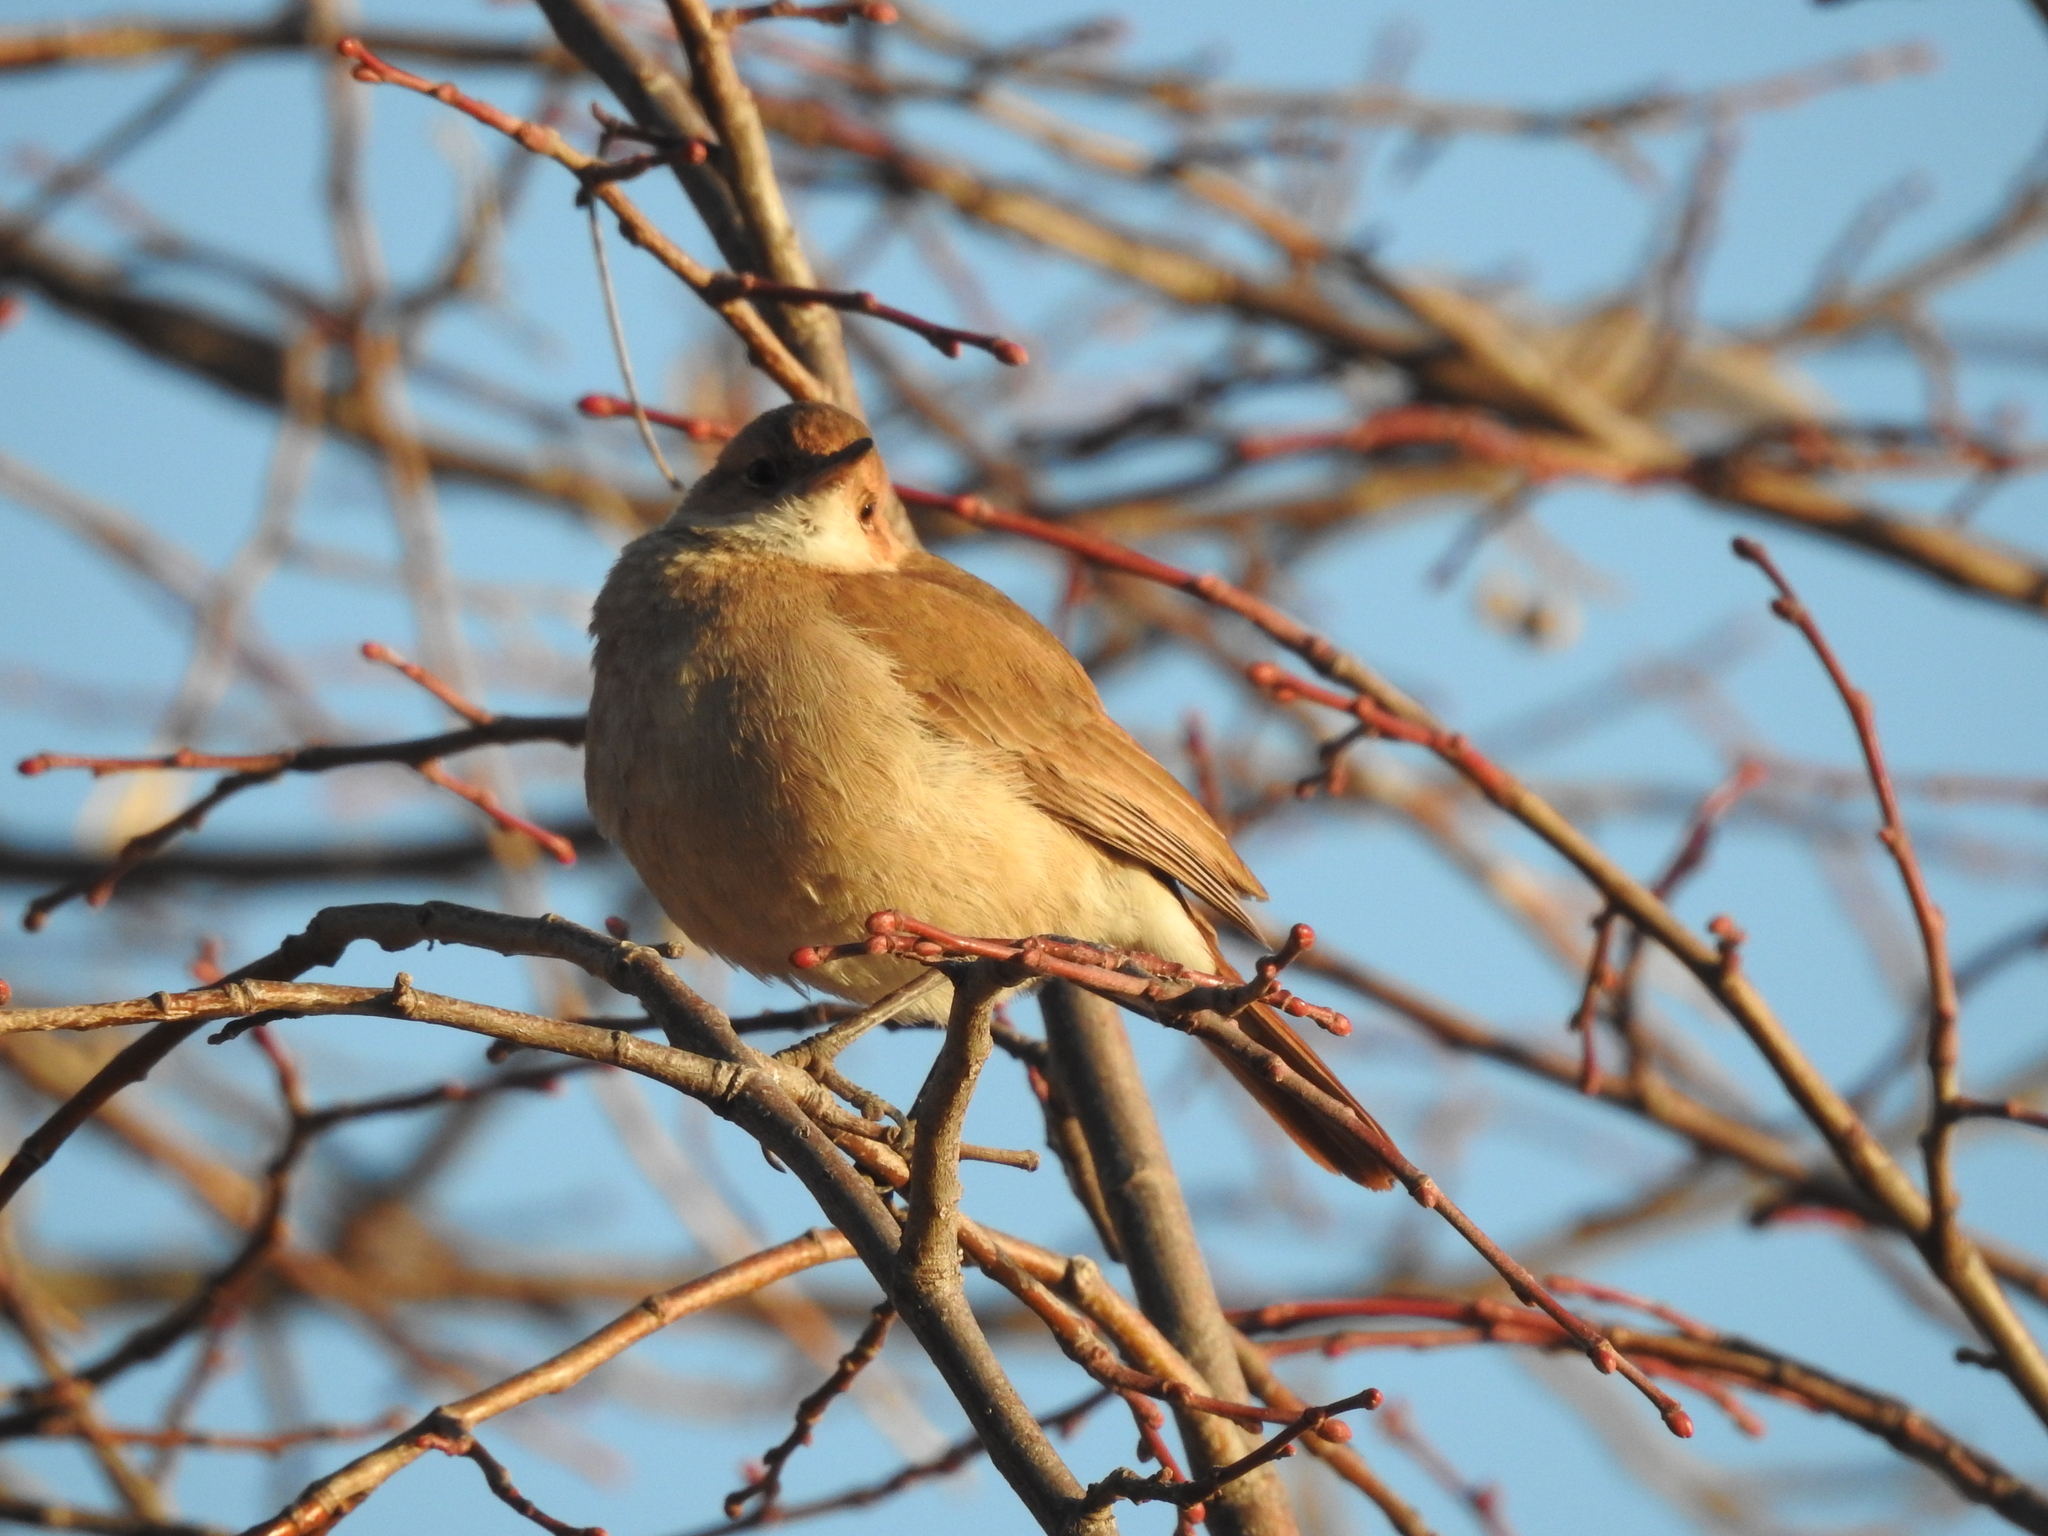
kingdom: Animalia
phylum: Chordata
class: Aves
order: Passeriformes
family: Furnariidae
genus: Furnarius
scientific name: Furnarius rufus
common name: Rufous hornero
